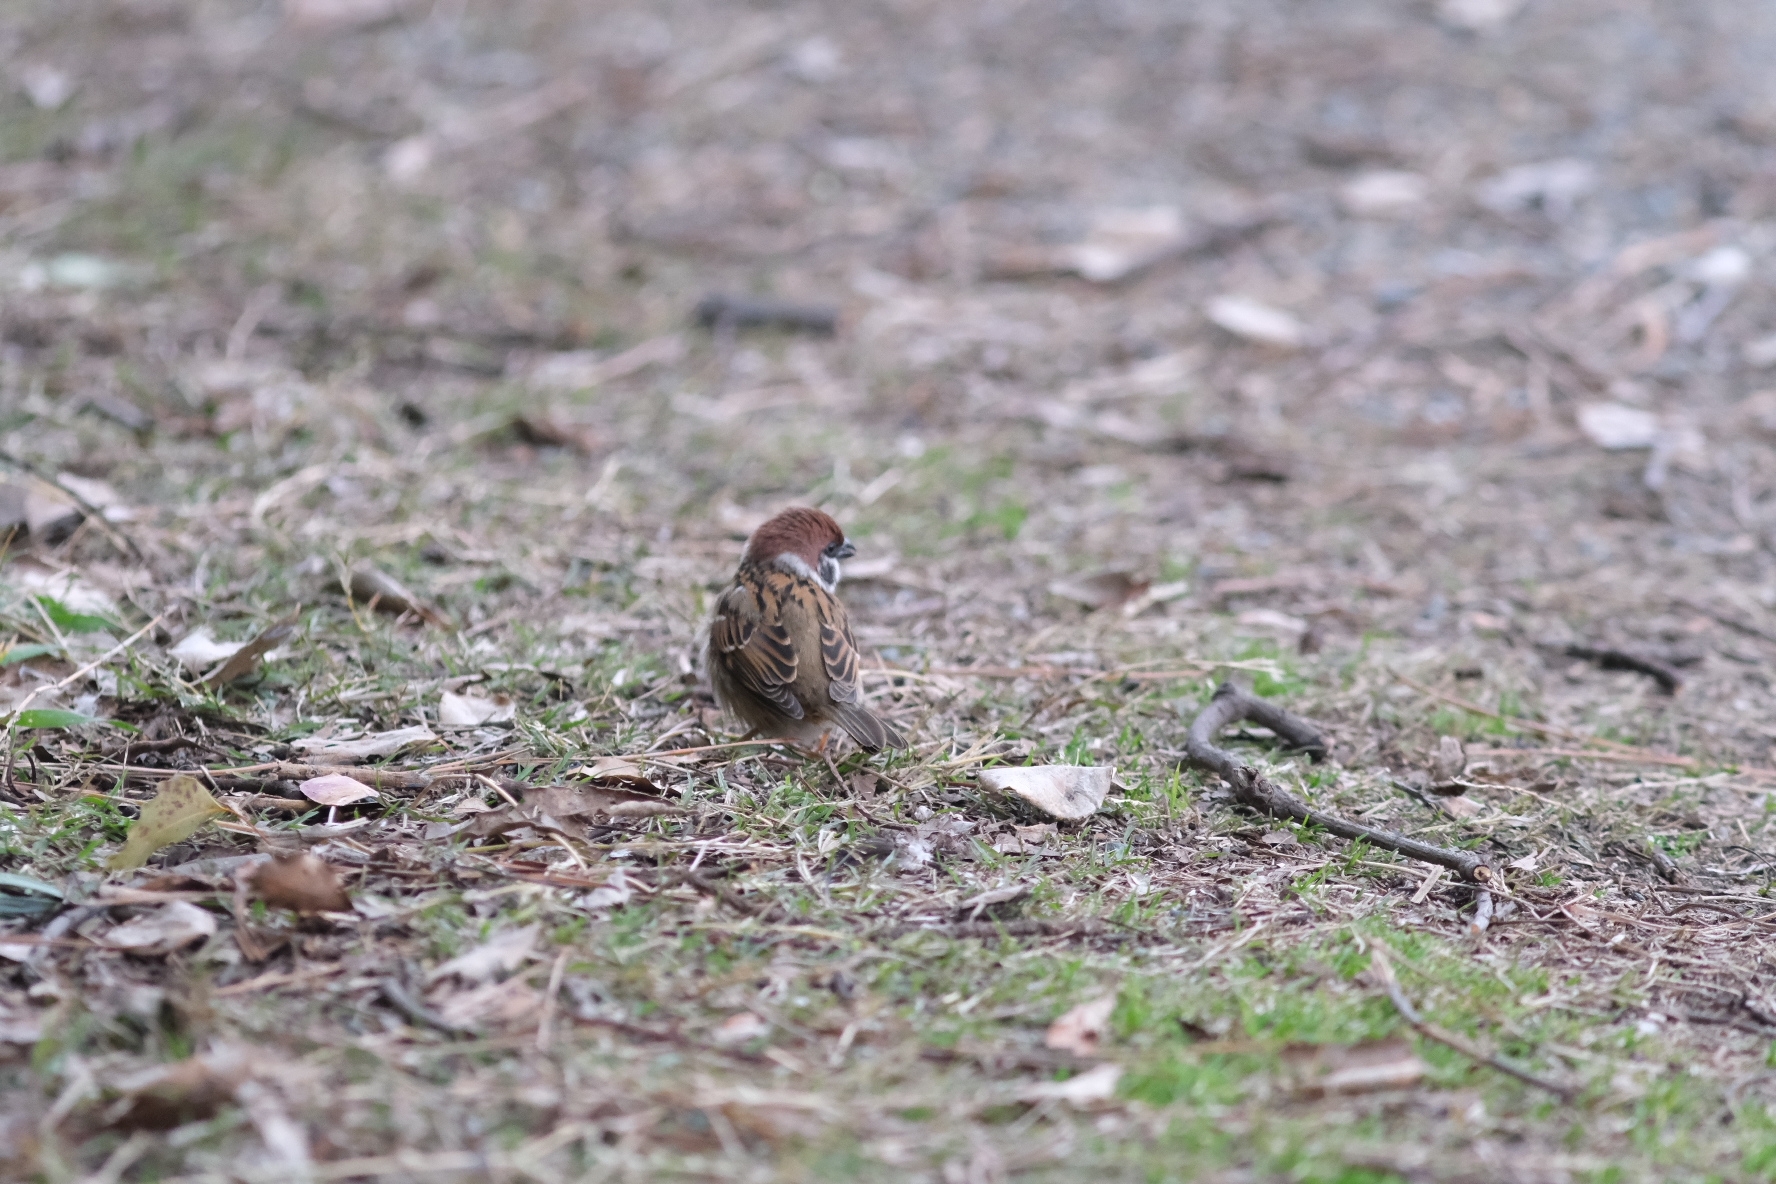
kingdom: Animalia
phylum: Chordata
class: Aves
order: Passeriformes
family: Passeridae
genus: Passer
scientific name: Passer montanus
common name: Eurasian tree sparrow
